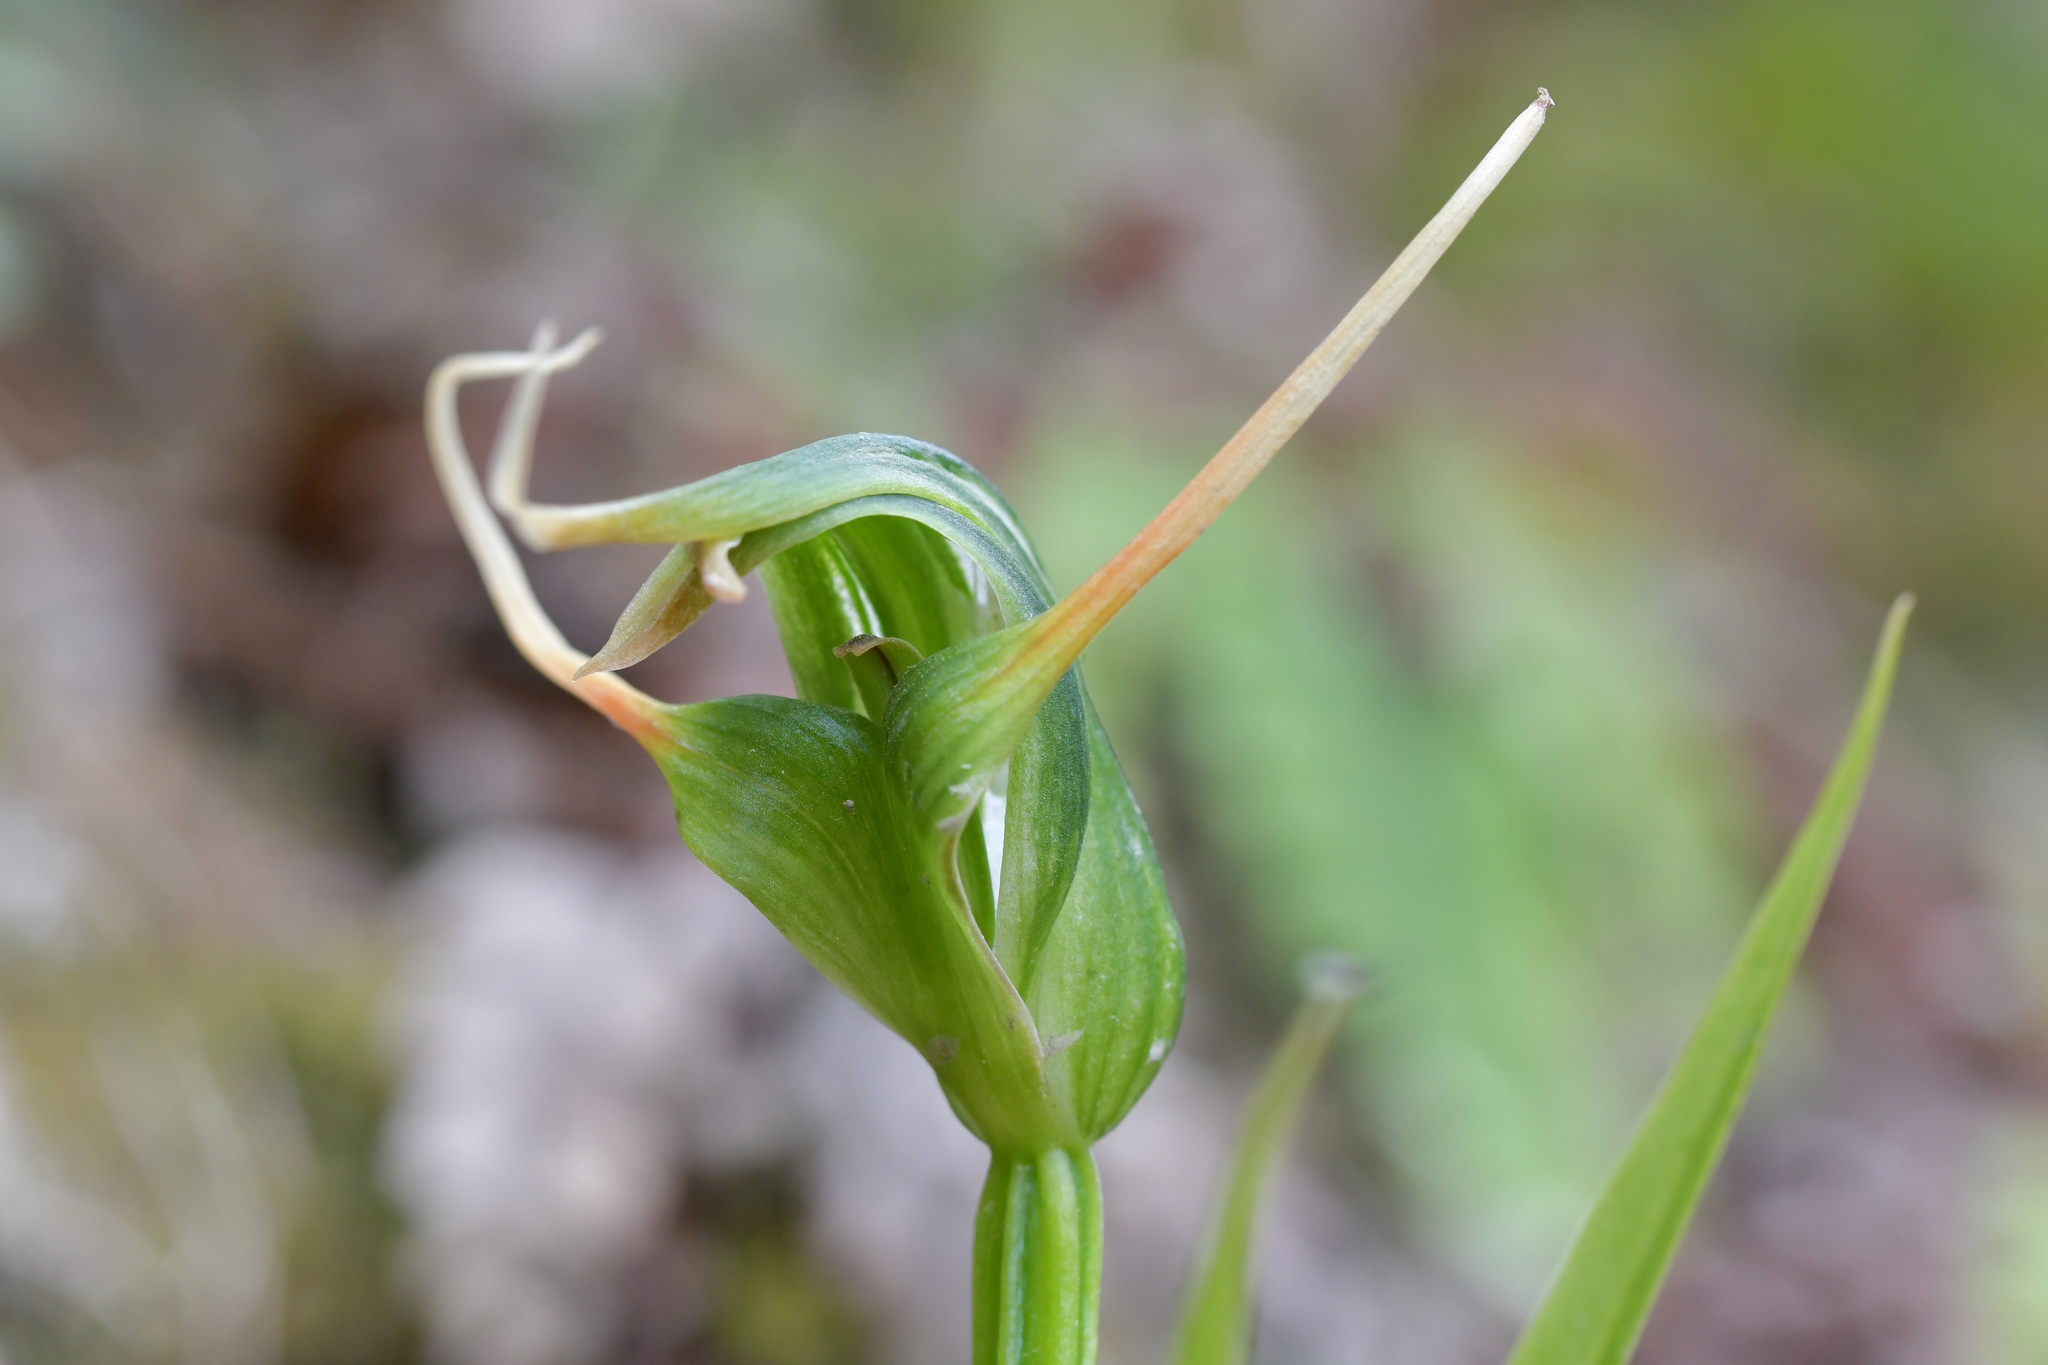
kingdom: Plantae
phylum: Tracheophyta
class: Liliopsida
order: Asparagales
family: Orchidaceae
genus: Pterostylis
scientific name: Pterostylis banksii
